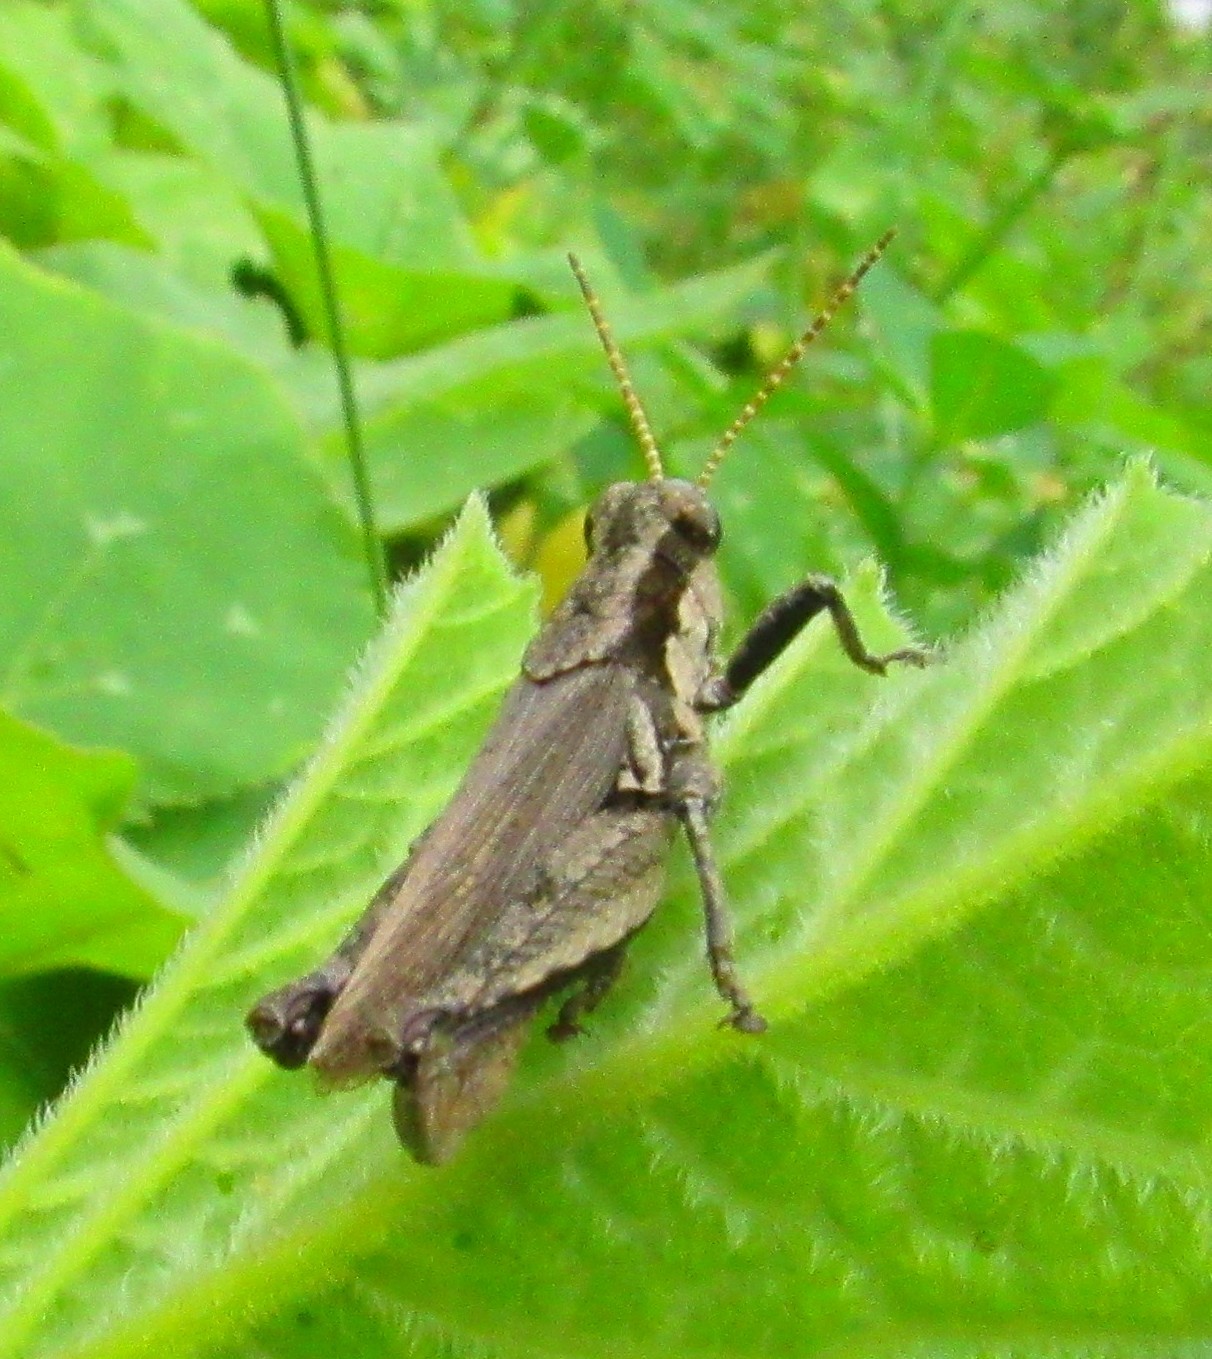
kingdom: Animalia
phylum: Arthropoda
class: Insecta
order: Orthoptera
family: Acrididae
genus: Ronderosia
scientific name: Ronderosia bergii
